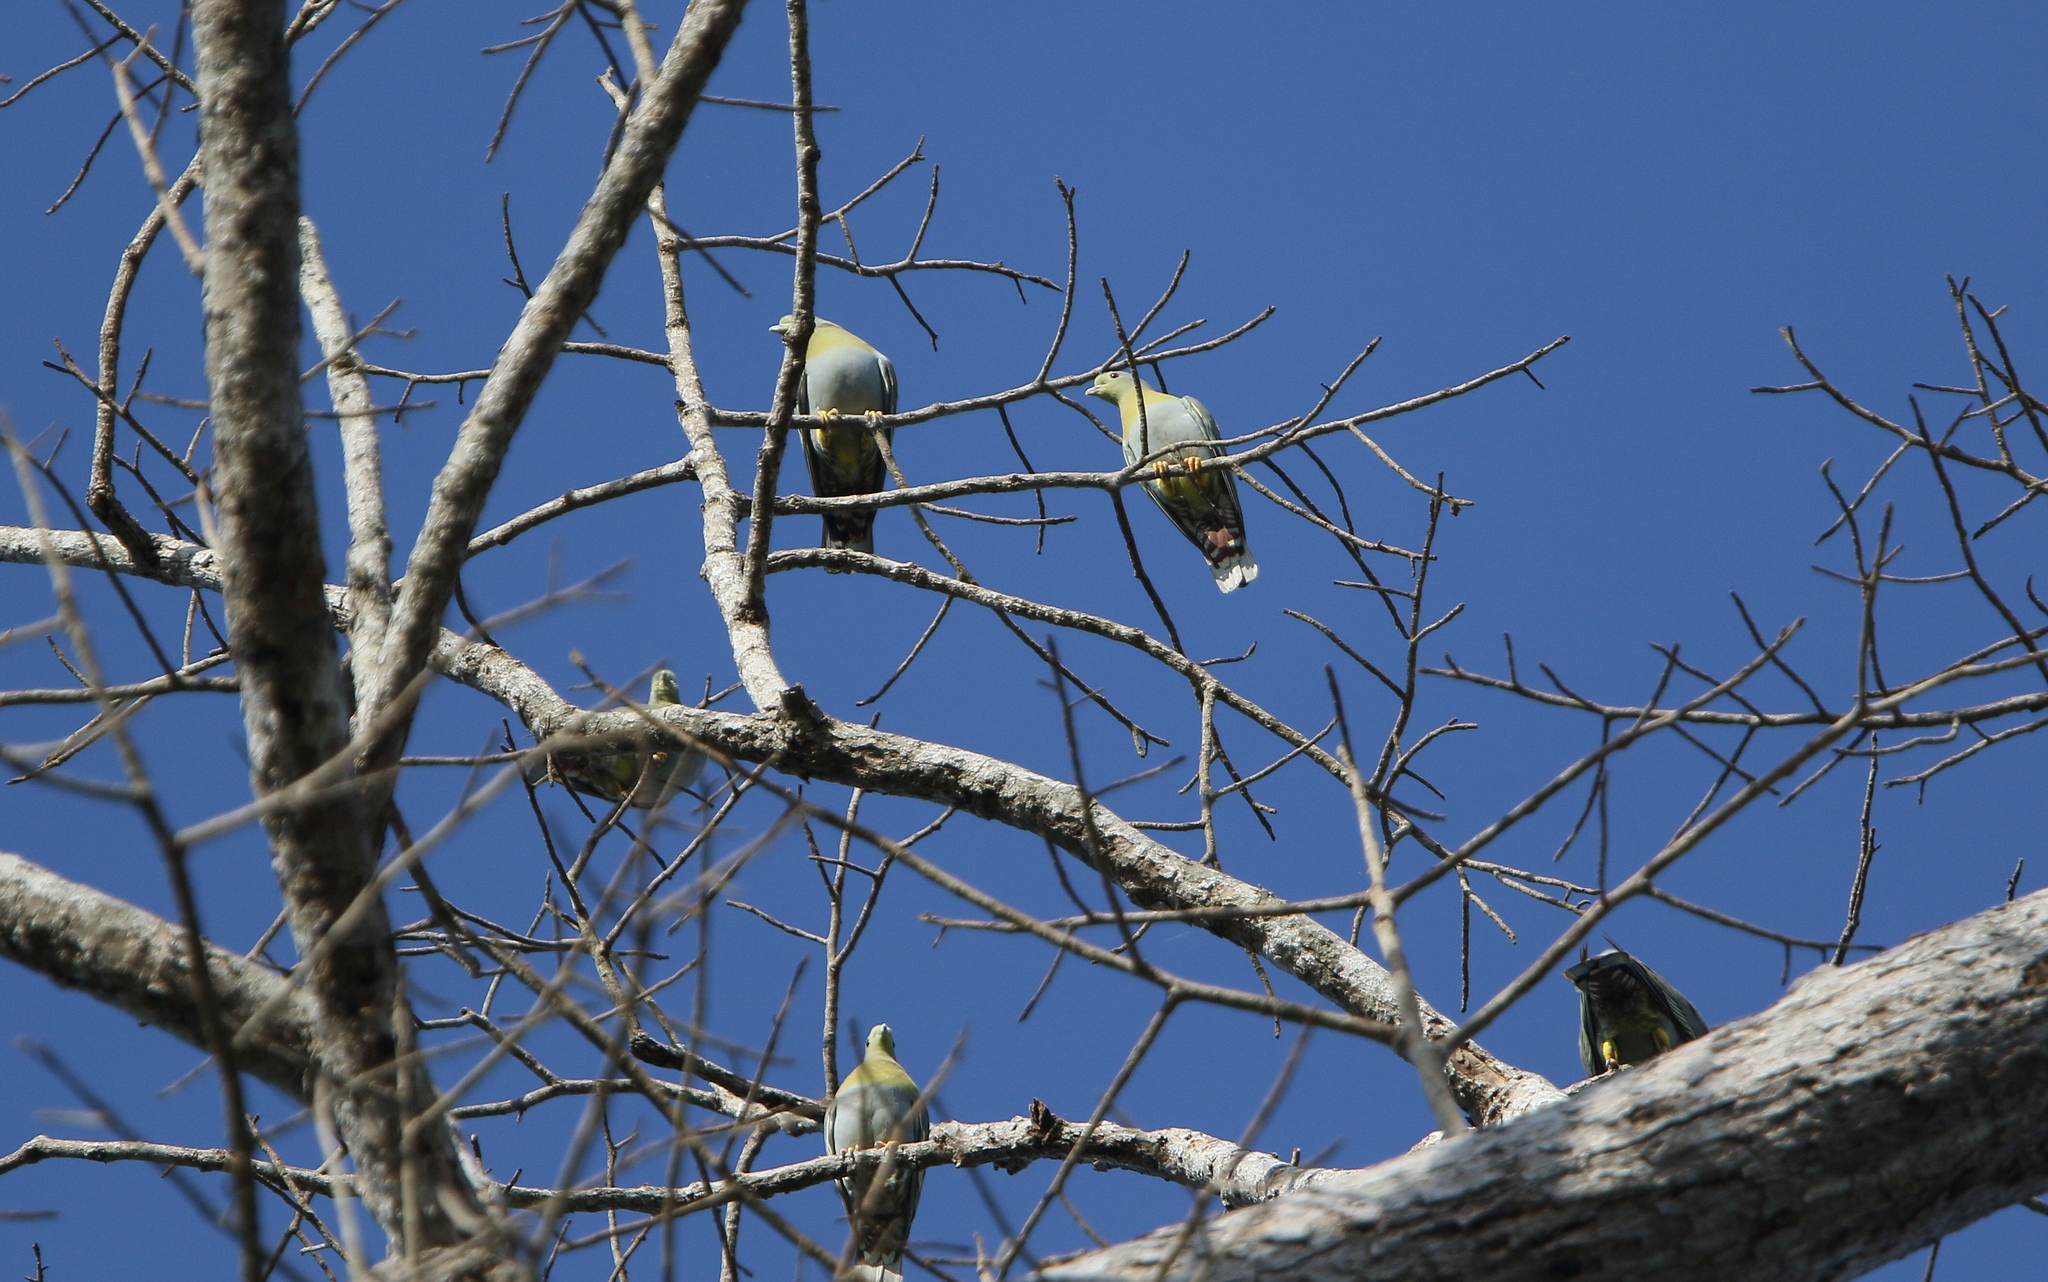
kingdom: Animalia
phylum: Chordata
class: Aves
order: Columbiformes
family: Columbidae
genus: Treron
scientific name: Treron phoenicopterus
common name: Yellow-footed green pigeon
